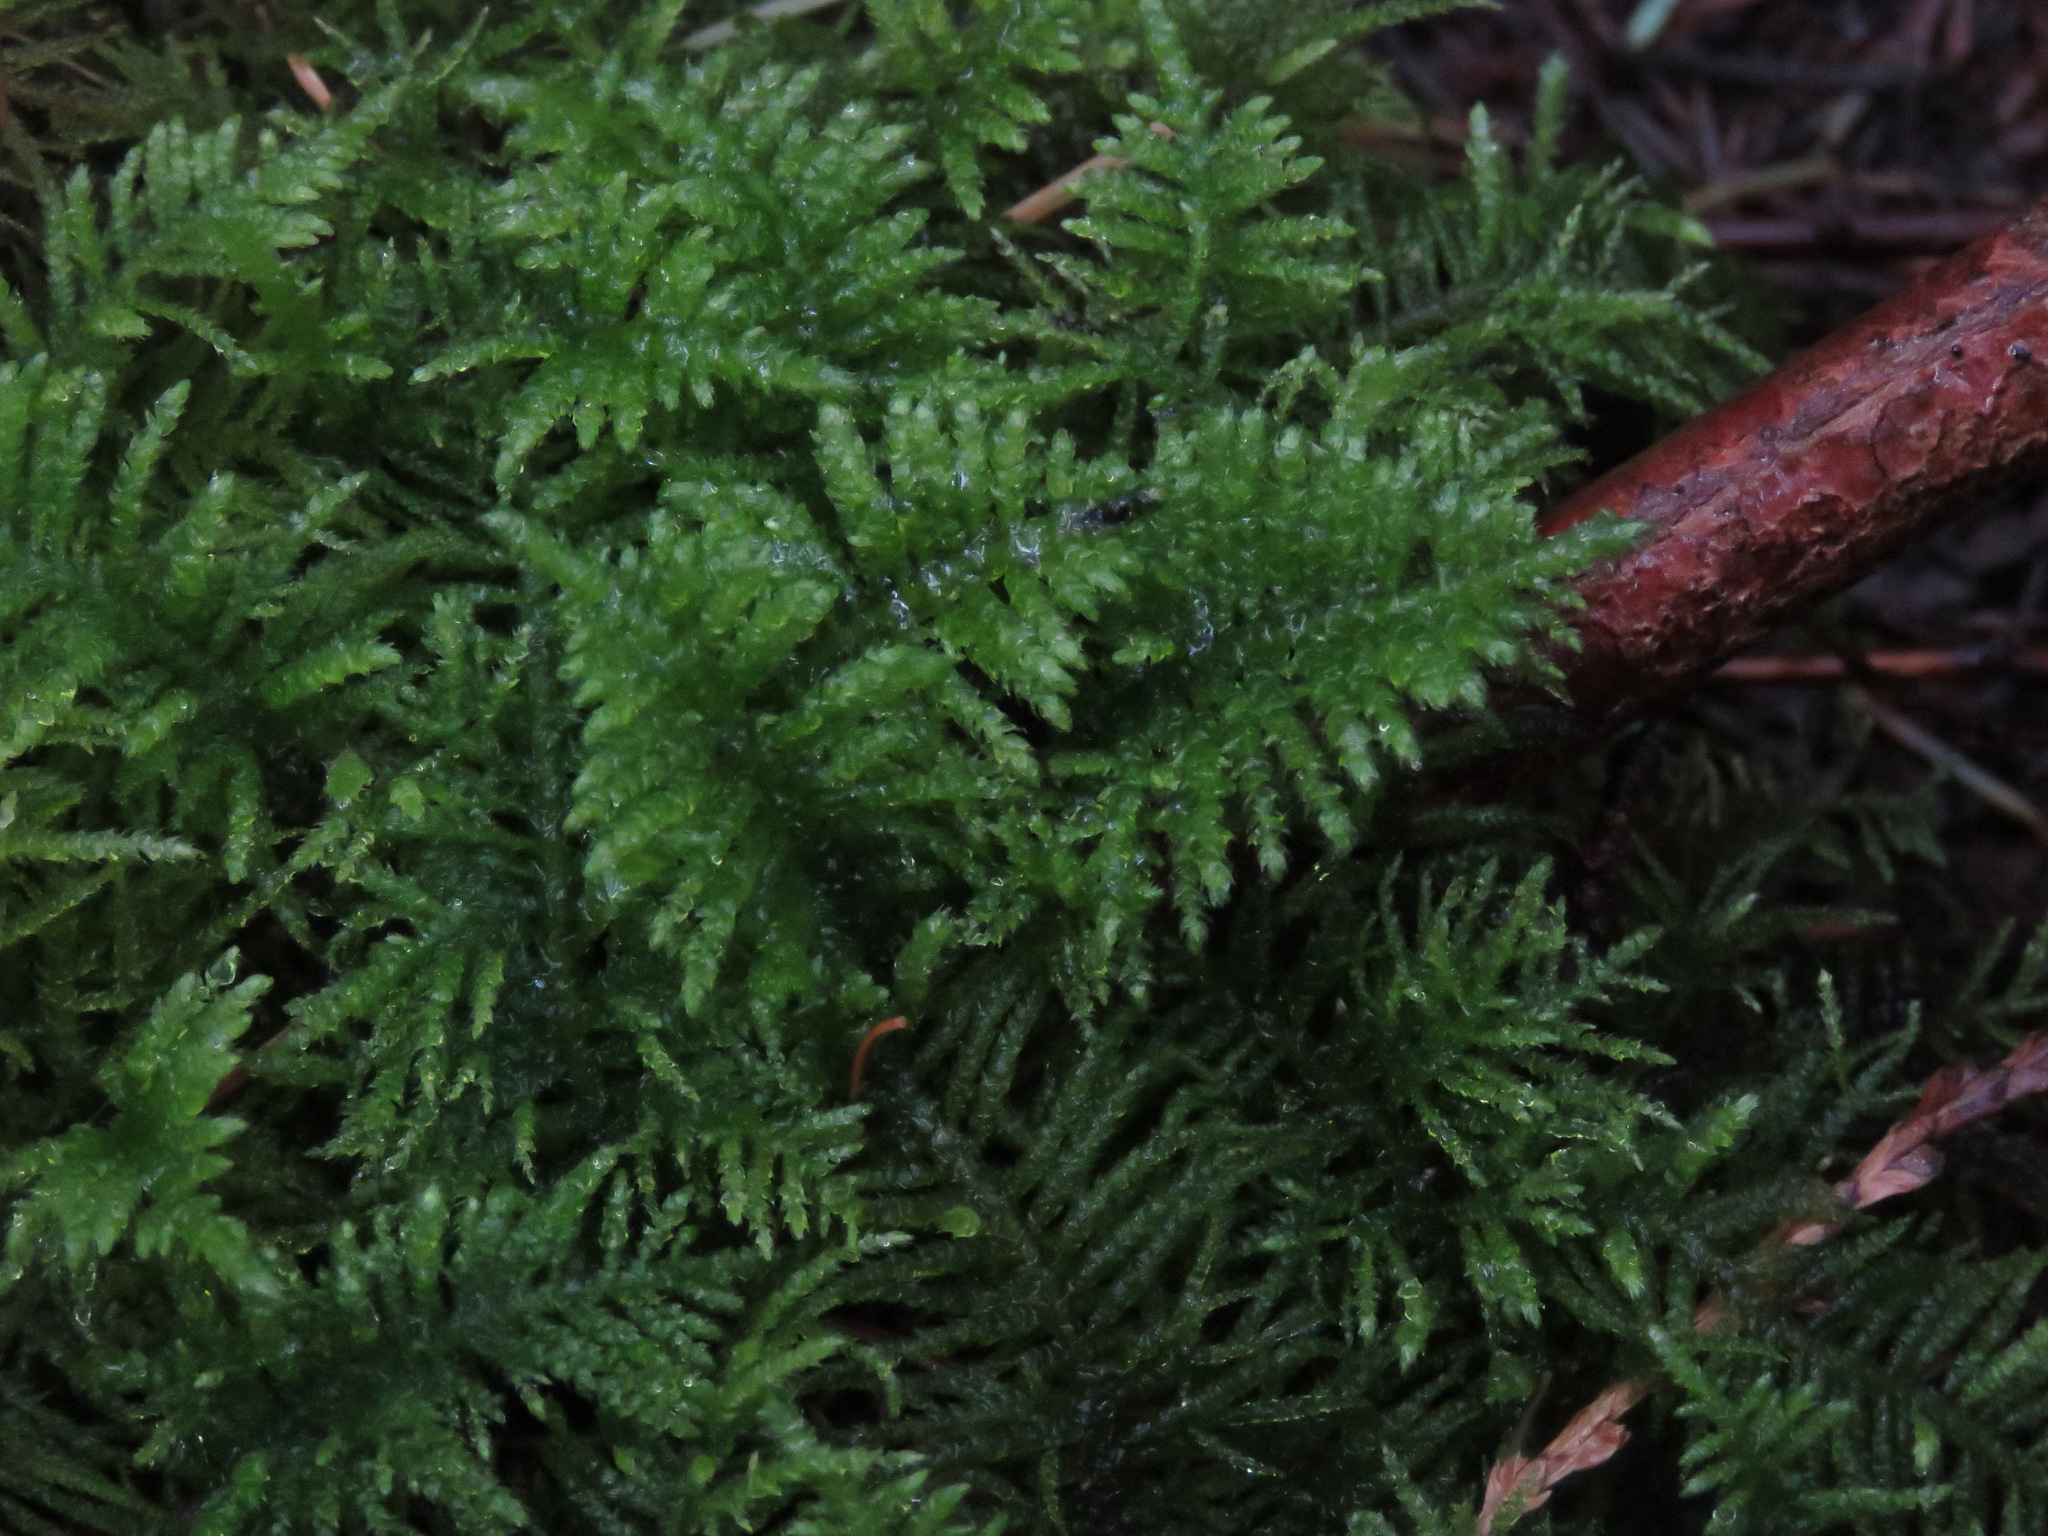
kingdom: Plantae
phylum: Bryophyta
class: Bryopsida
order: Hypnales
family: Brachytheciaceae
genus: Kindbergia
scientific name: Kindbergia oregana
